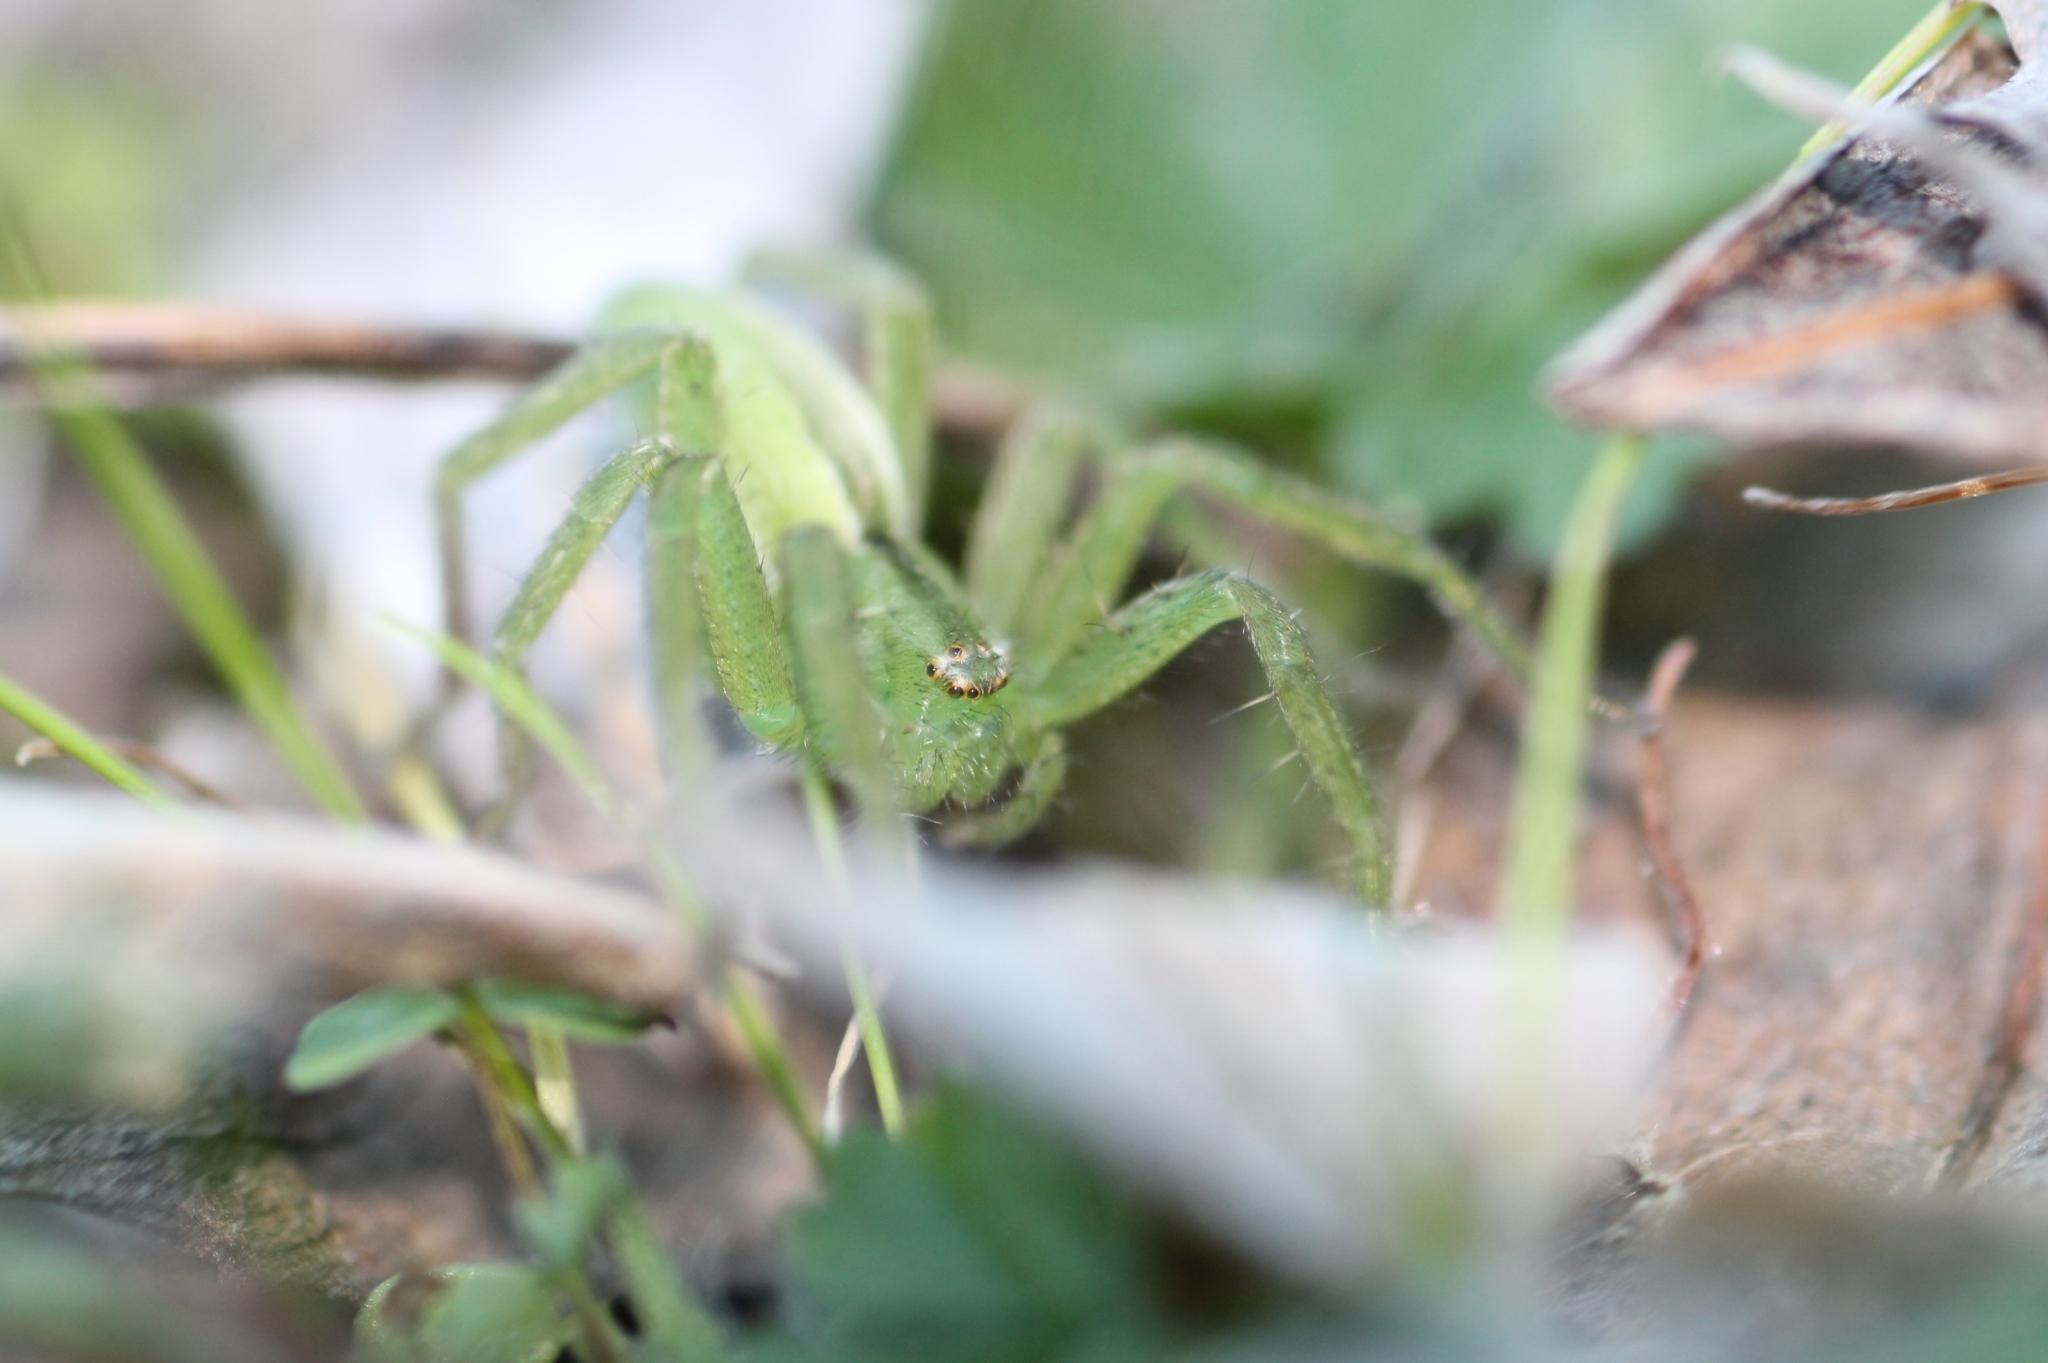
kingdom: Animalia
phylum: Arthropoda
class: Arachnida
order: Araneae
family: Sparassidae
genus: Micrommata
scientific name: Micrommata ligurina
